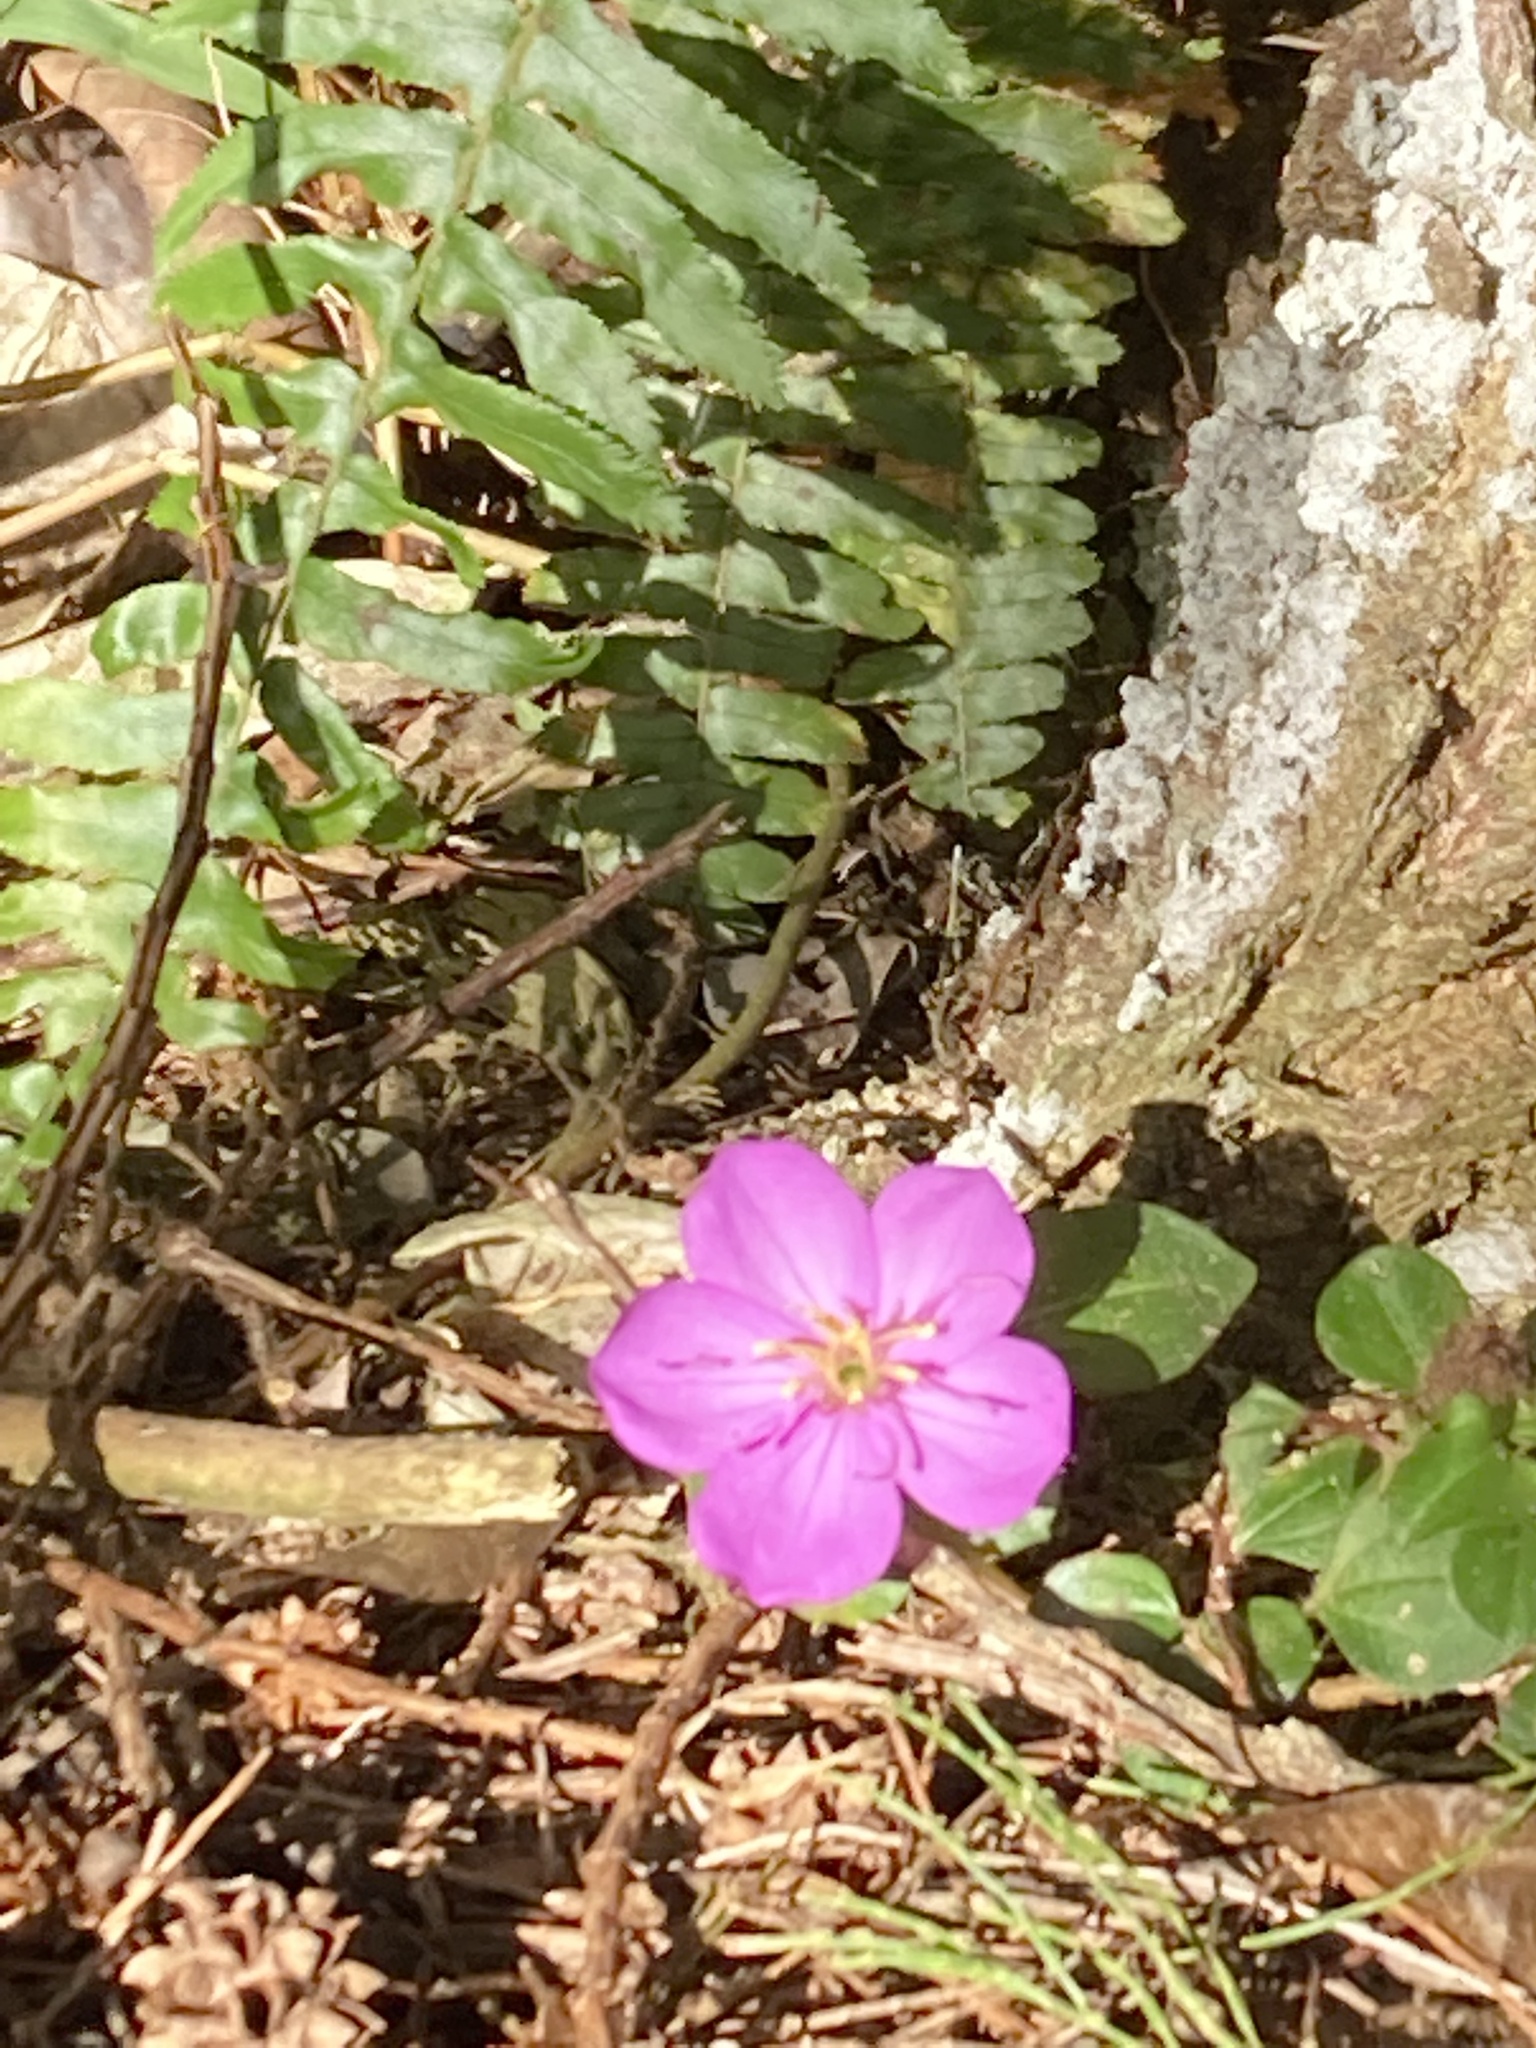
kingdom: Plantae
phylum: Tracheophyta
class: Magnoliopsida
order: Myrtales
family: Melastomataceae
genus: Heterotis
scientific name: Heterotis rotundifolia
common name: Pinklady
